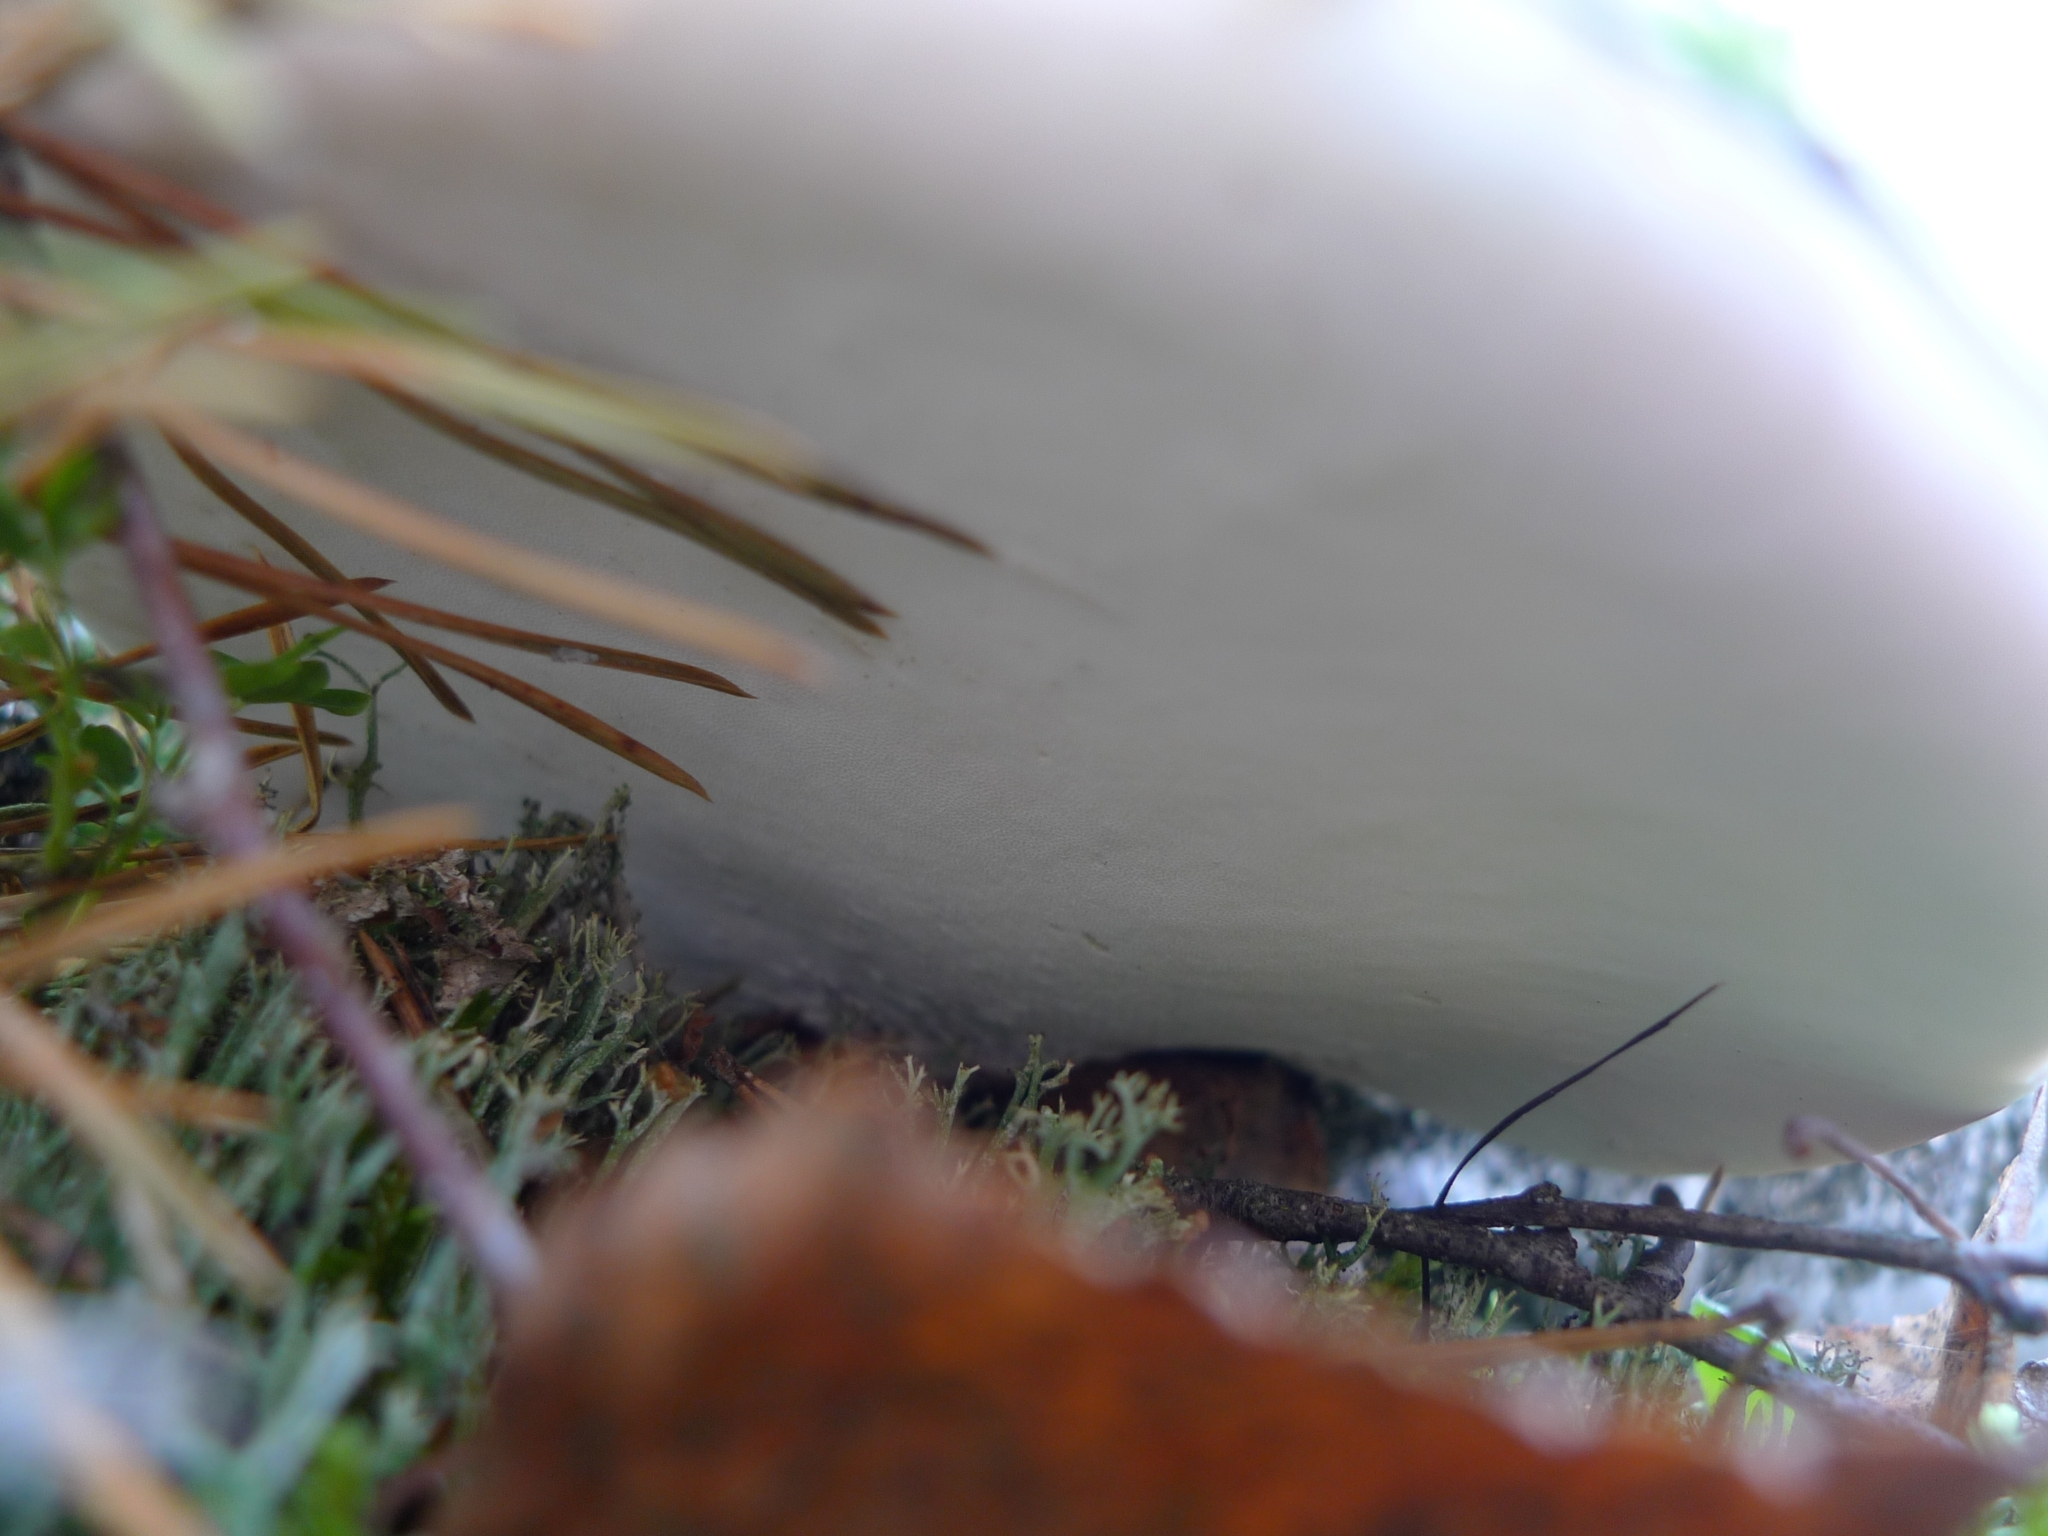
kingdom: Fungi
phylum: Basidiomycota
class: Agaricomycetes
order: Polyporales
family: Fomitopsidaceae
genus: Fomitopsis
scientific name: Fomitopsis betulina
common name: Birch polypore
